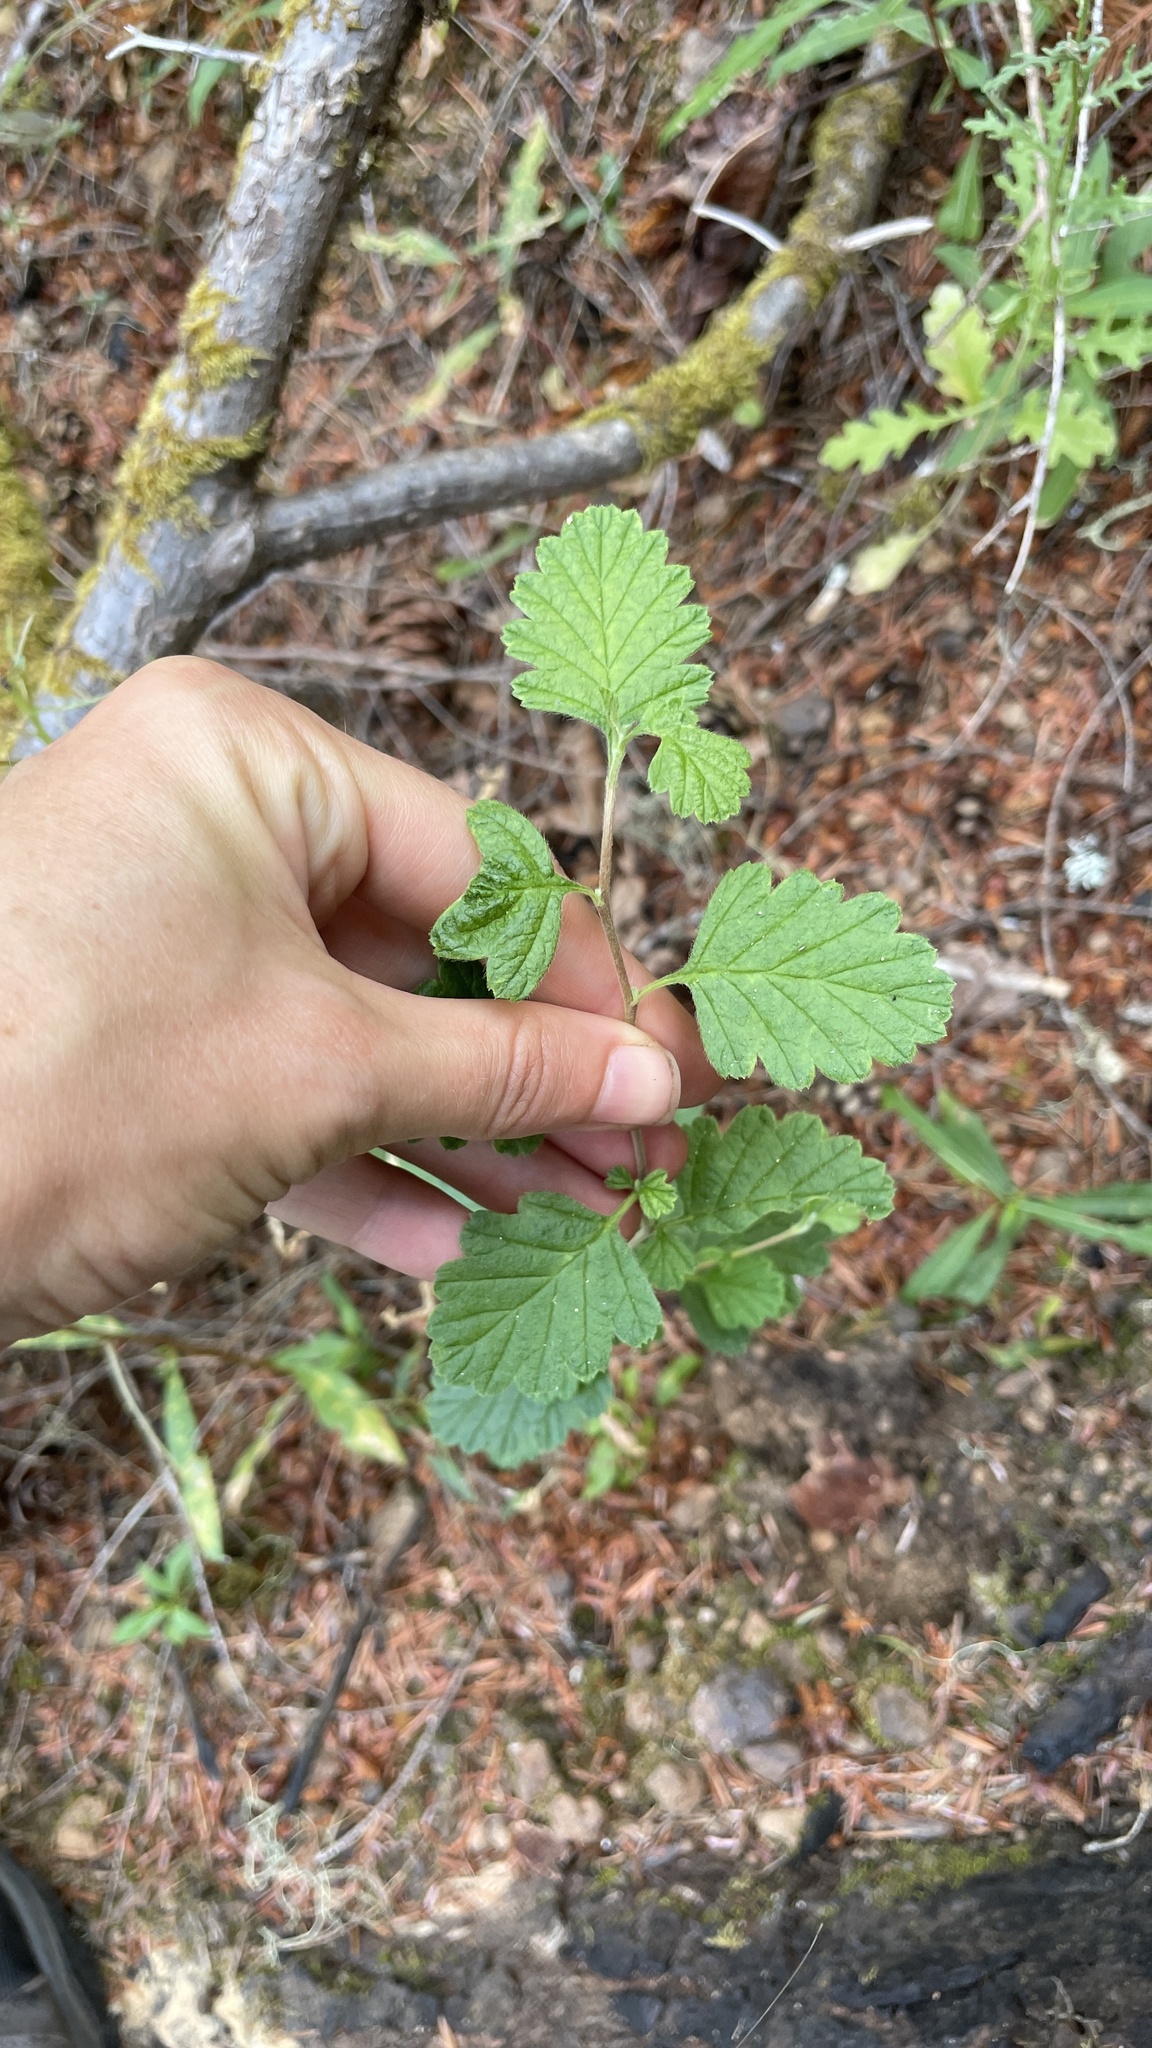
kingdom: Plantae
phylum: Tracheophyta
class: Magnoliopsida
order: Rosales
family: Rosaceae
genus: Holodiscus
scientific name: Holodiscus discolor
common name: Oceanspray
